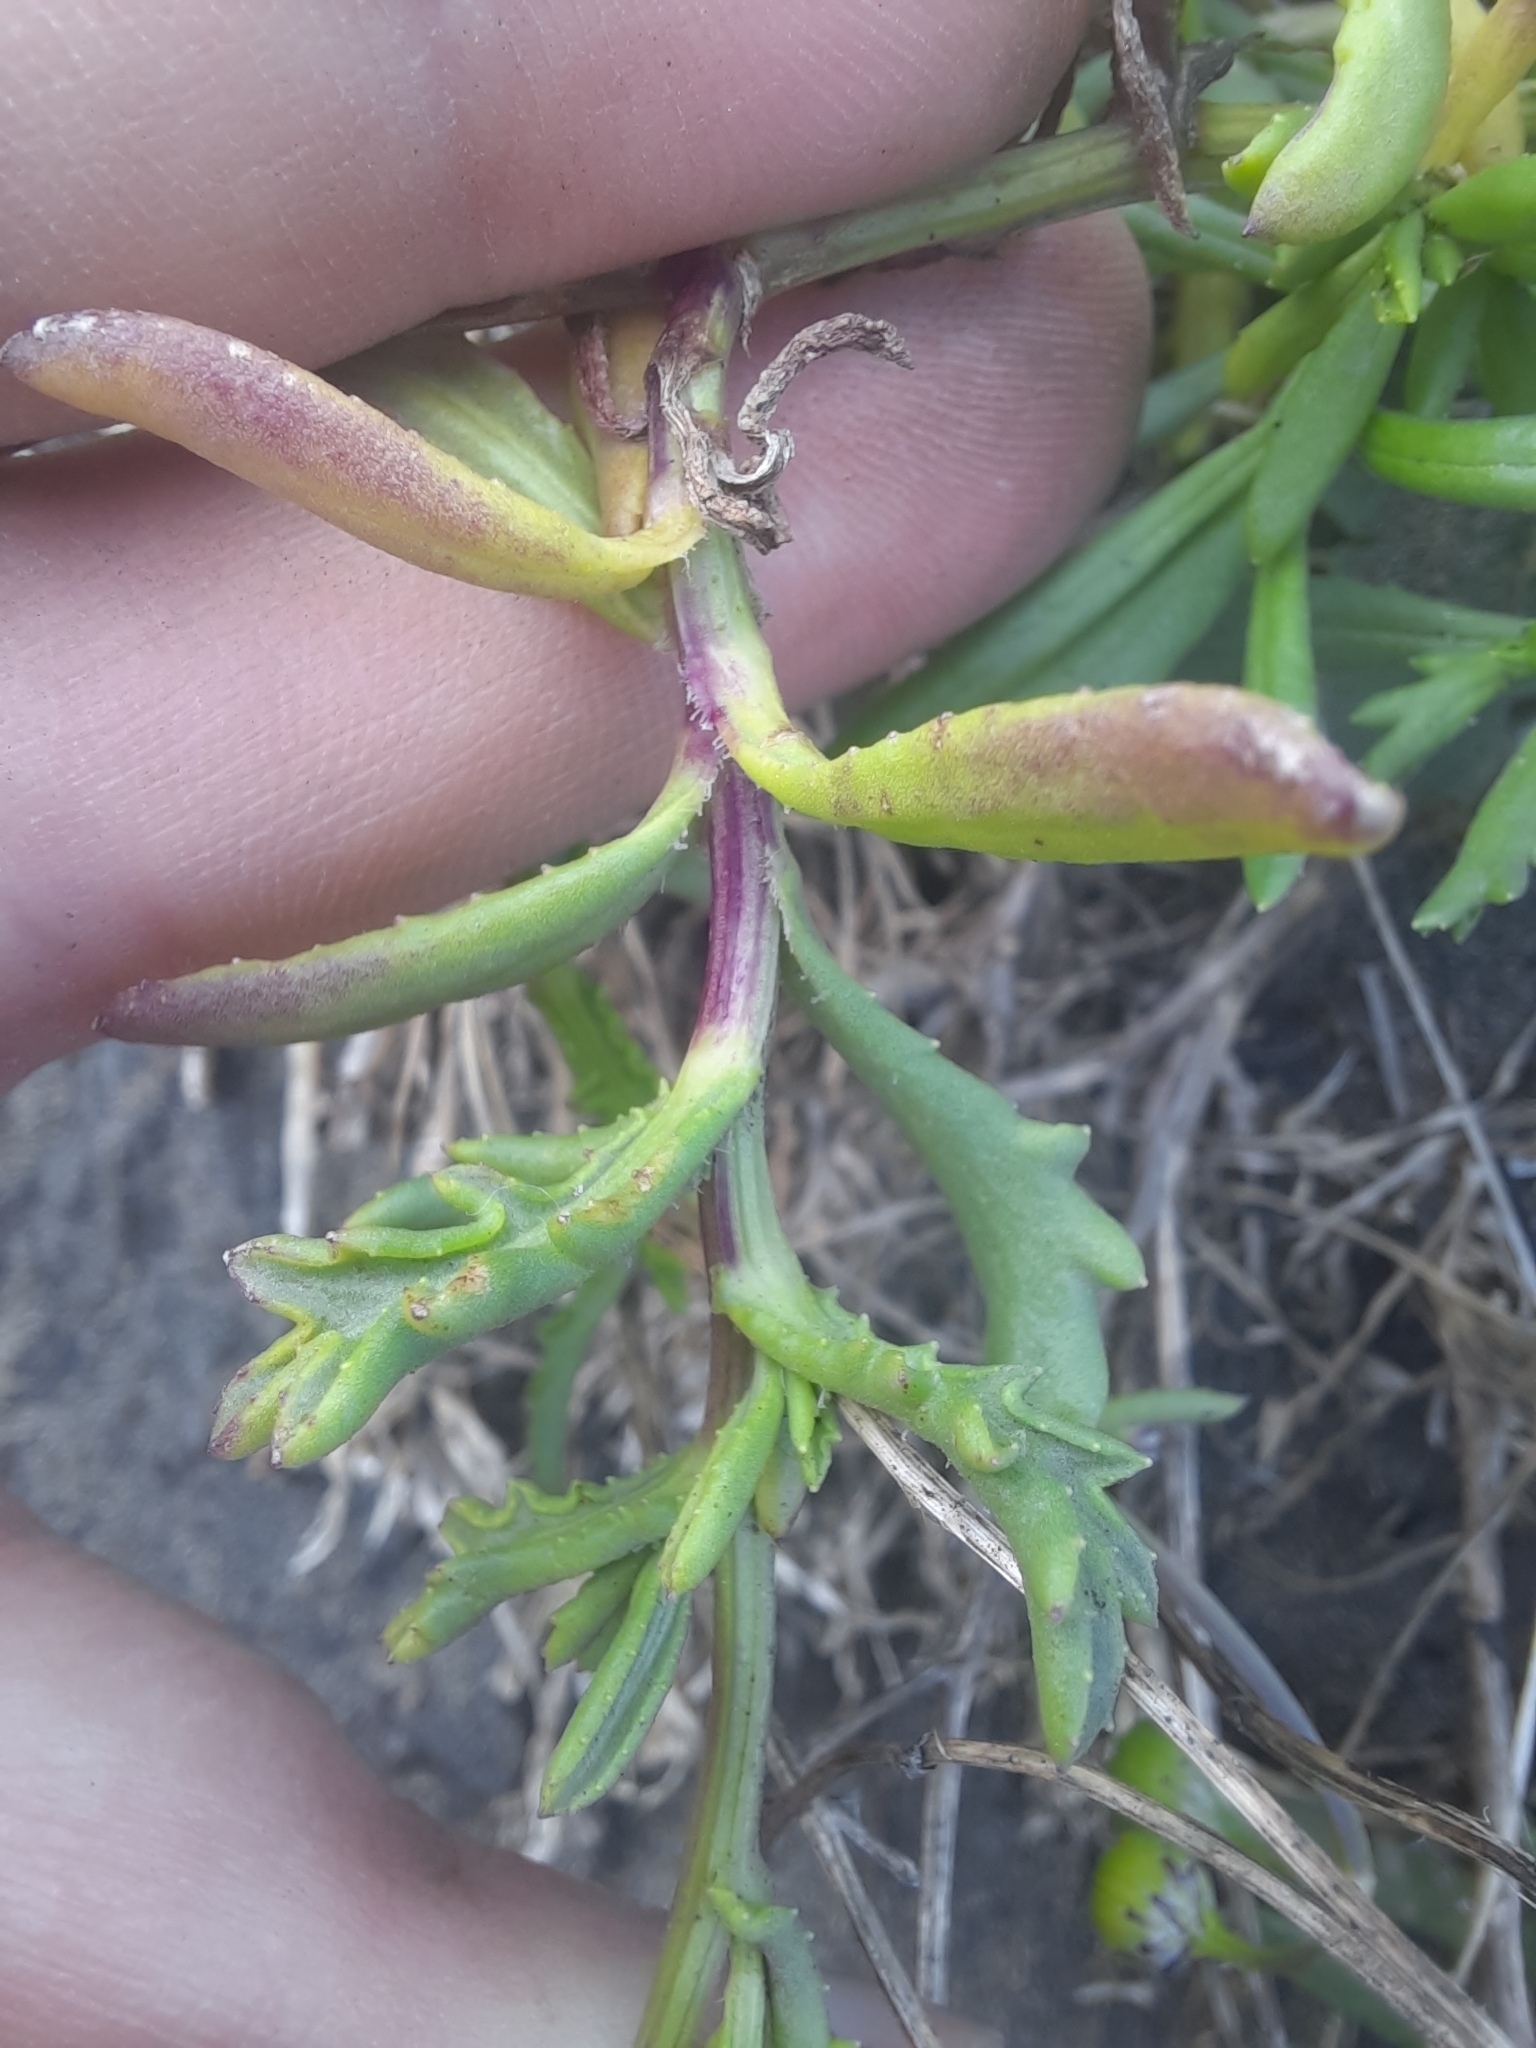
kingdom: Plantae
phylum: Tracheophyta
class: Magnoliopsida
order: Asterales
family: Asteraceae
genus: Senecio
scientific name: Senecio skirrhodon
